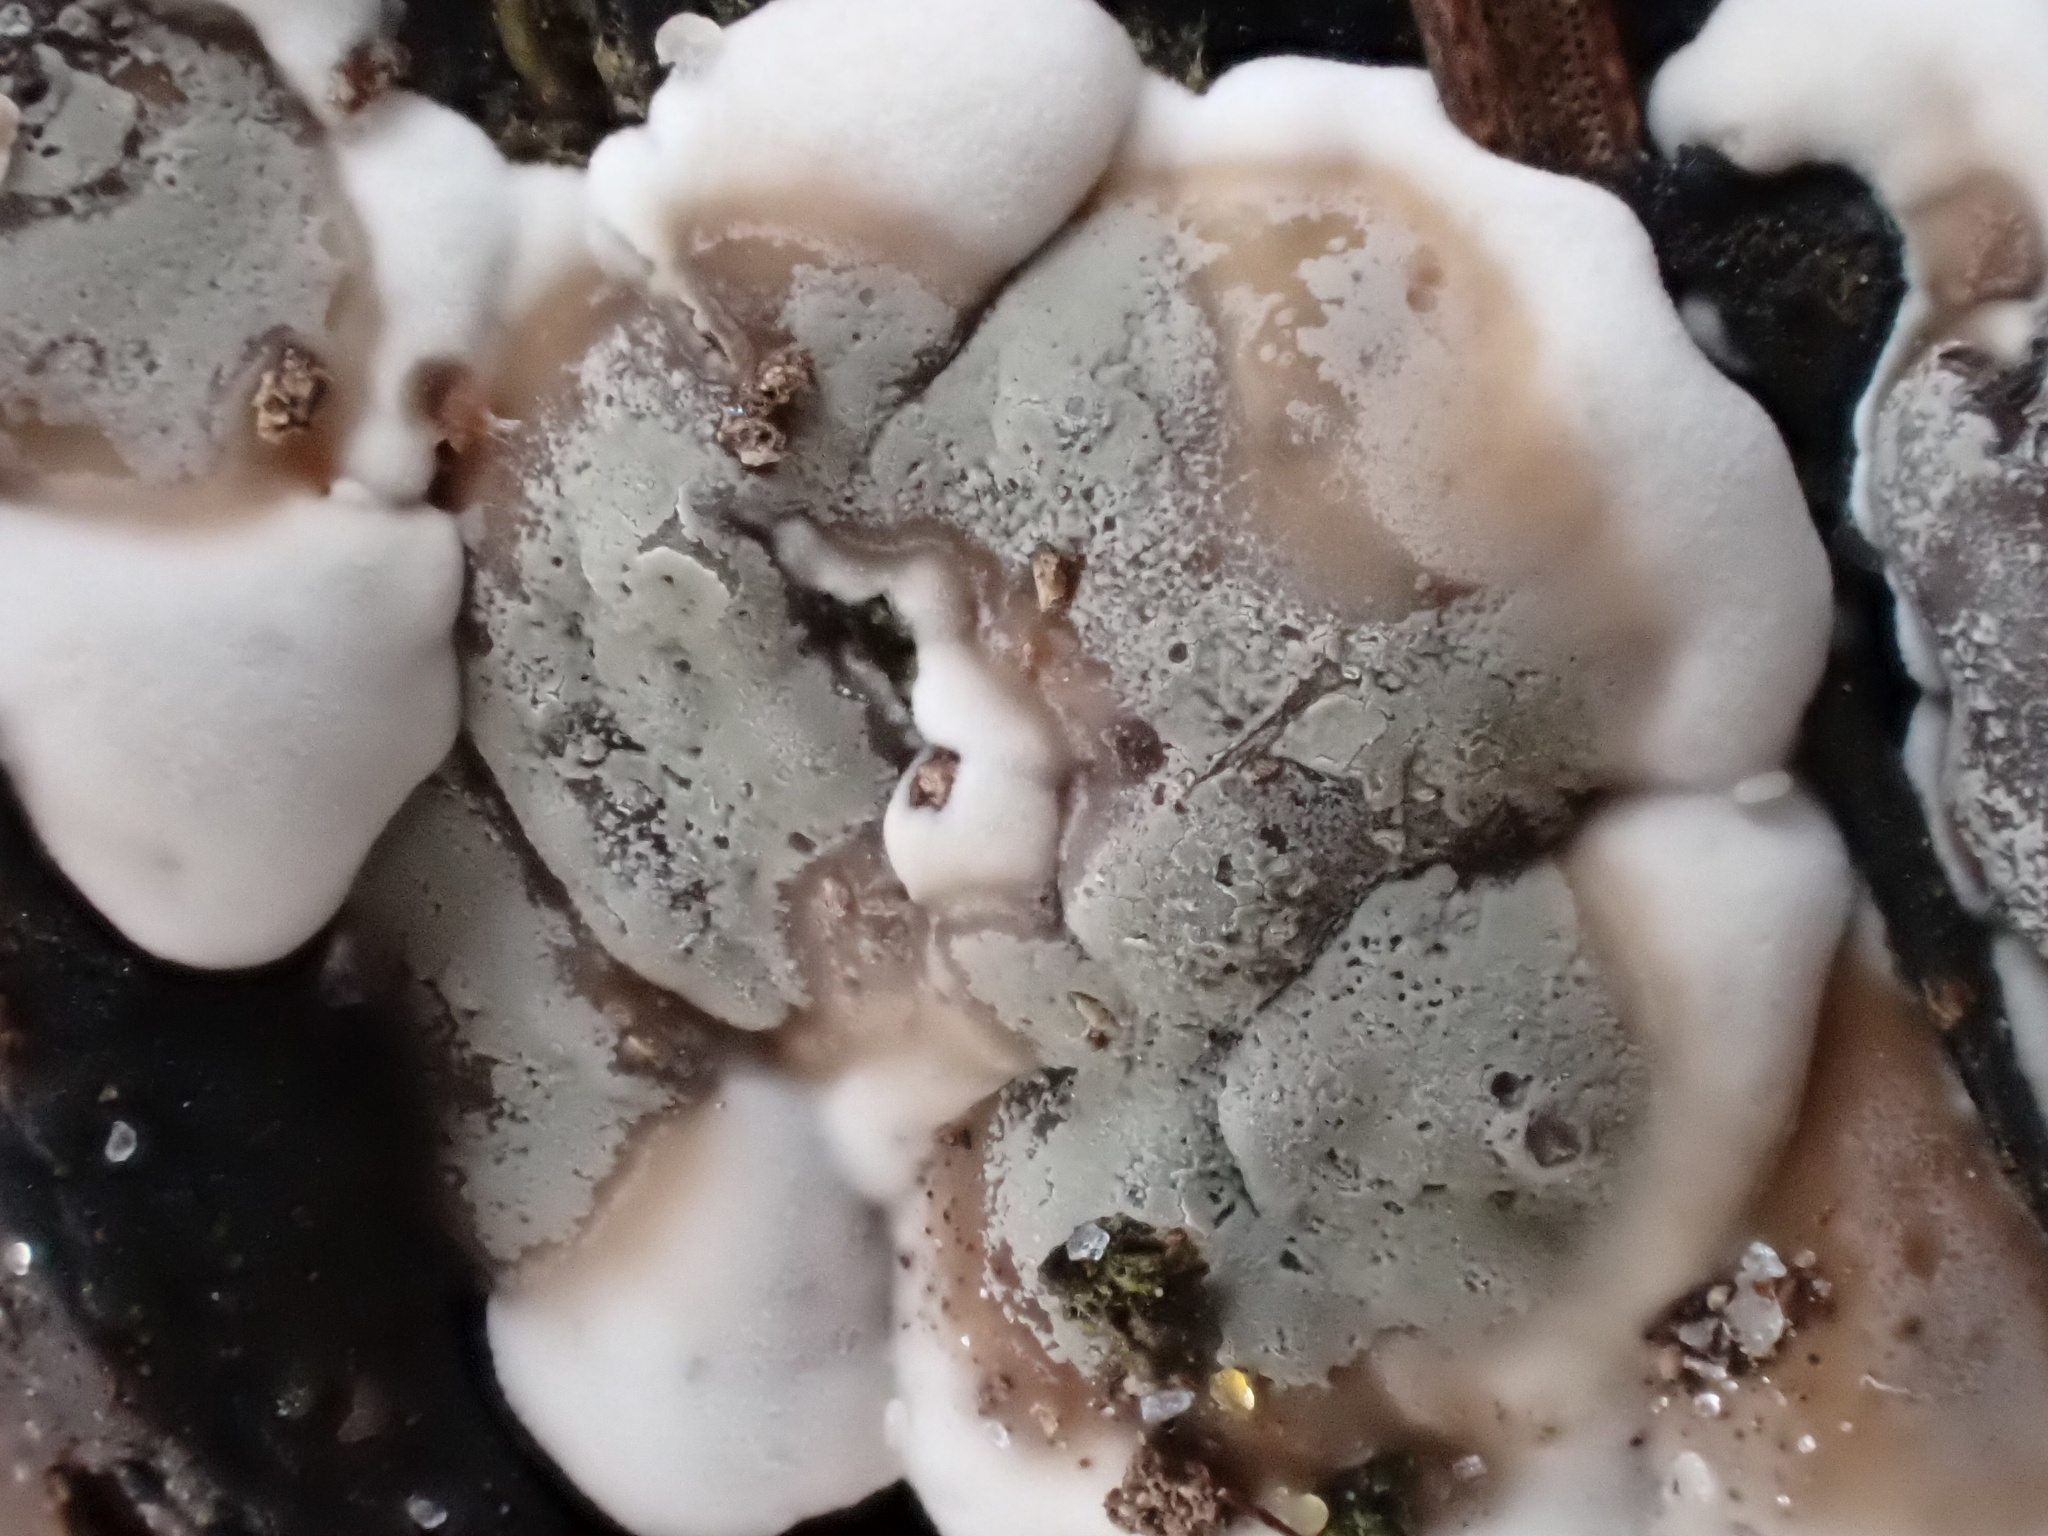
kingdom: Fungi
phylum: Basidiomycota
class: Agaricomycetes
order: Polyporales
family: Phanerochaetaceae
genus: Bjerkandera
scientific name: Bjerkandera adusta
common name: Smoky bracket
